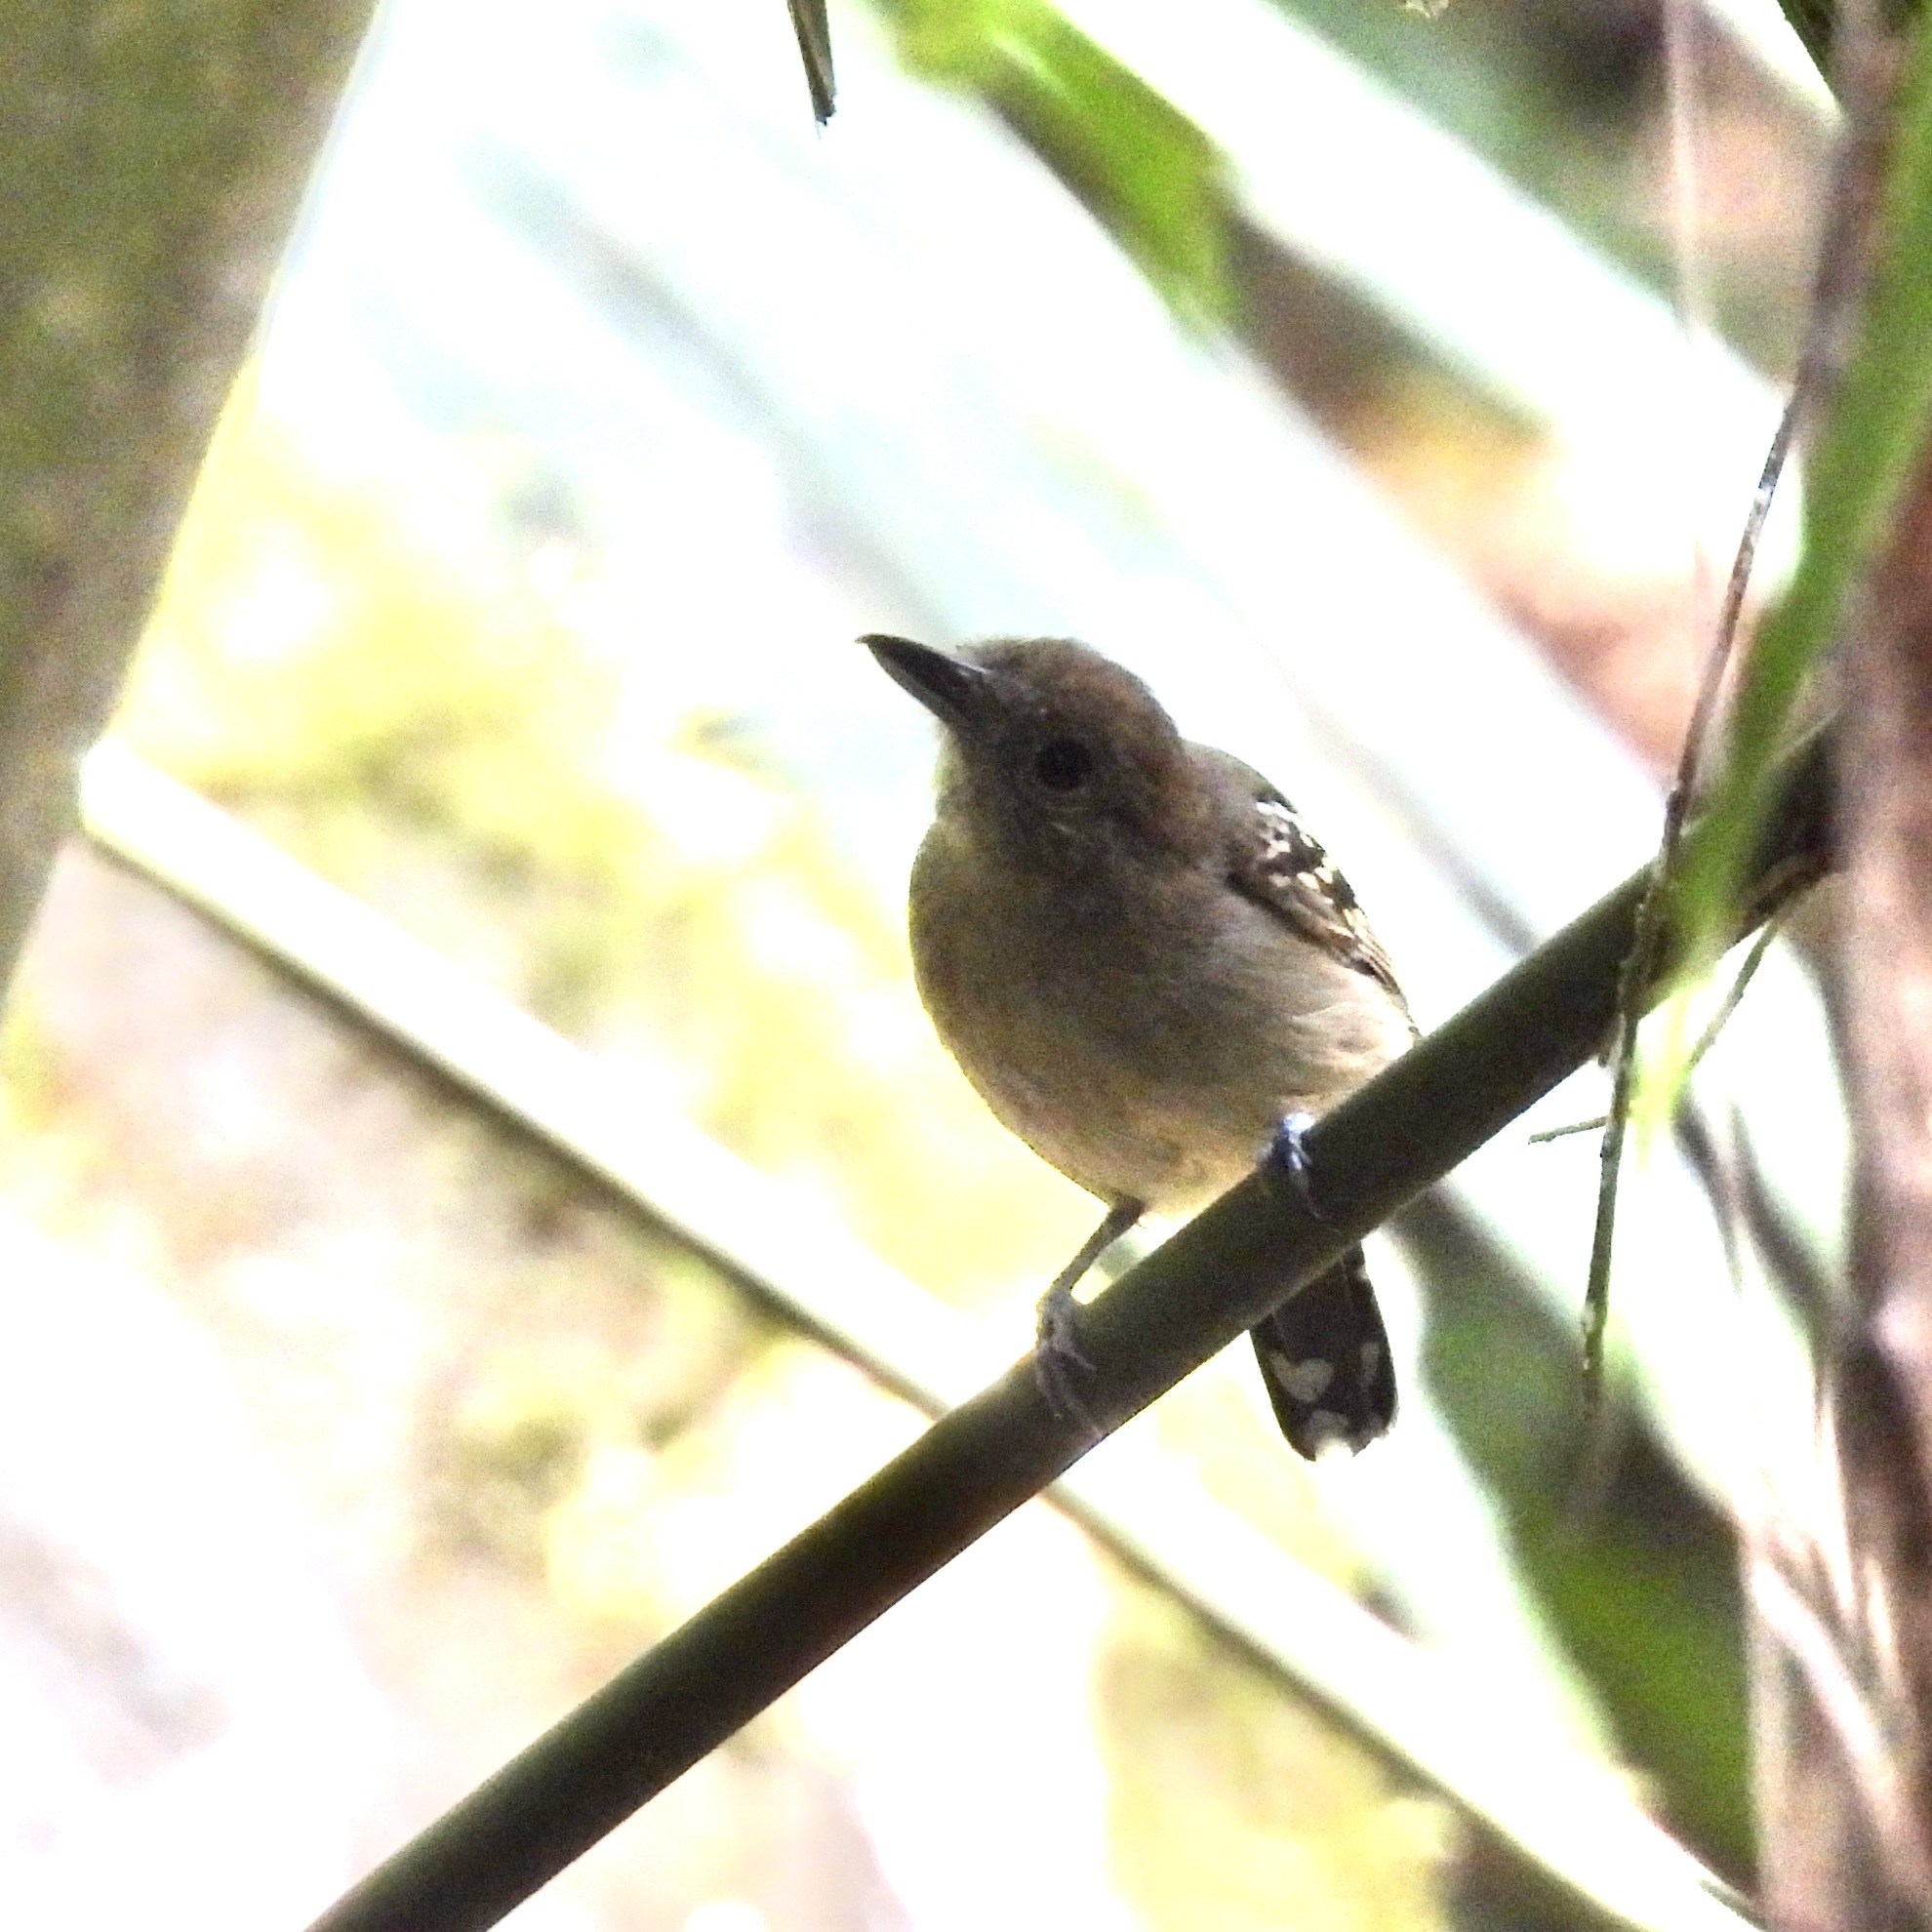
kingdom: Animalia
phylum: Chordata
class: Aves
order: Passeriformes
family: Thamnophilidae
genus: Thamnophilus
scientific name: Thamnophilus atrinucha
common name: Black-crowned antshrike
